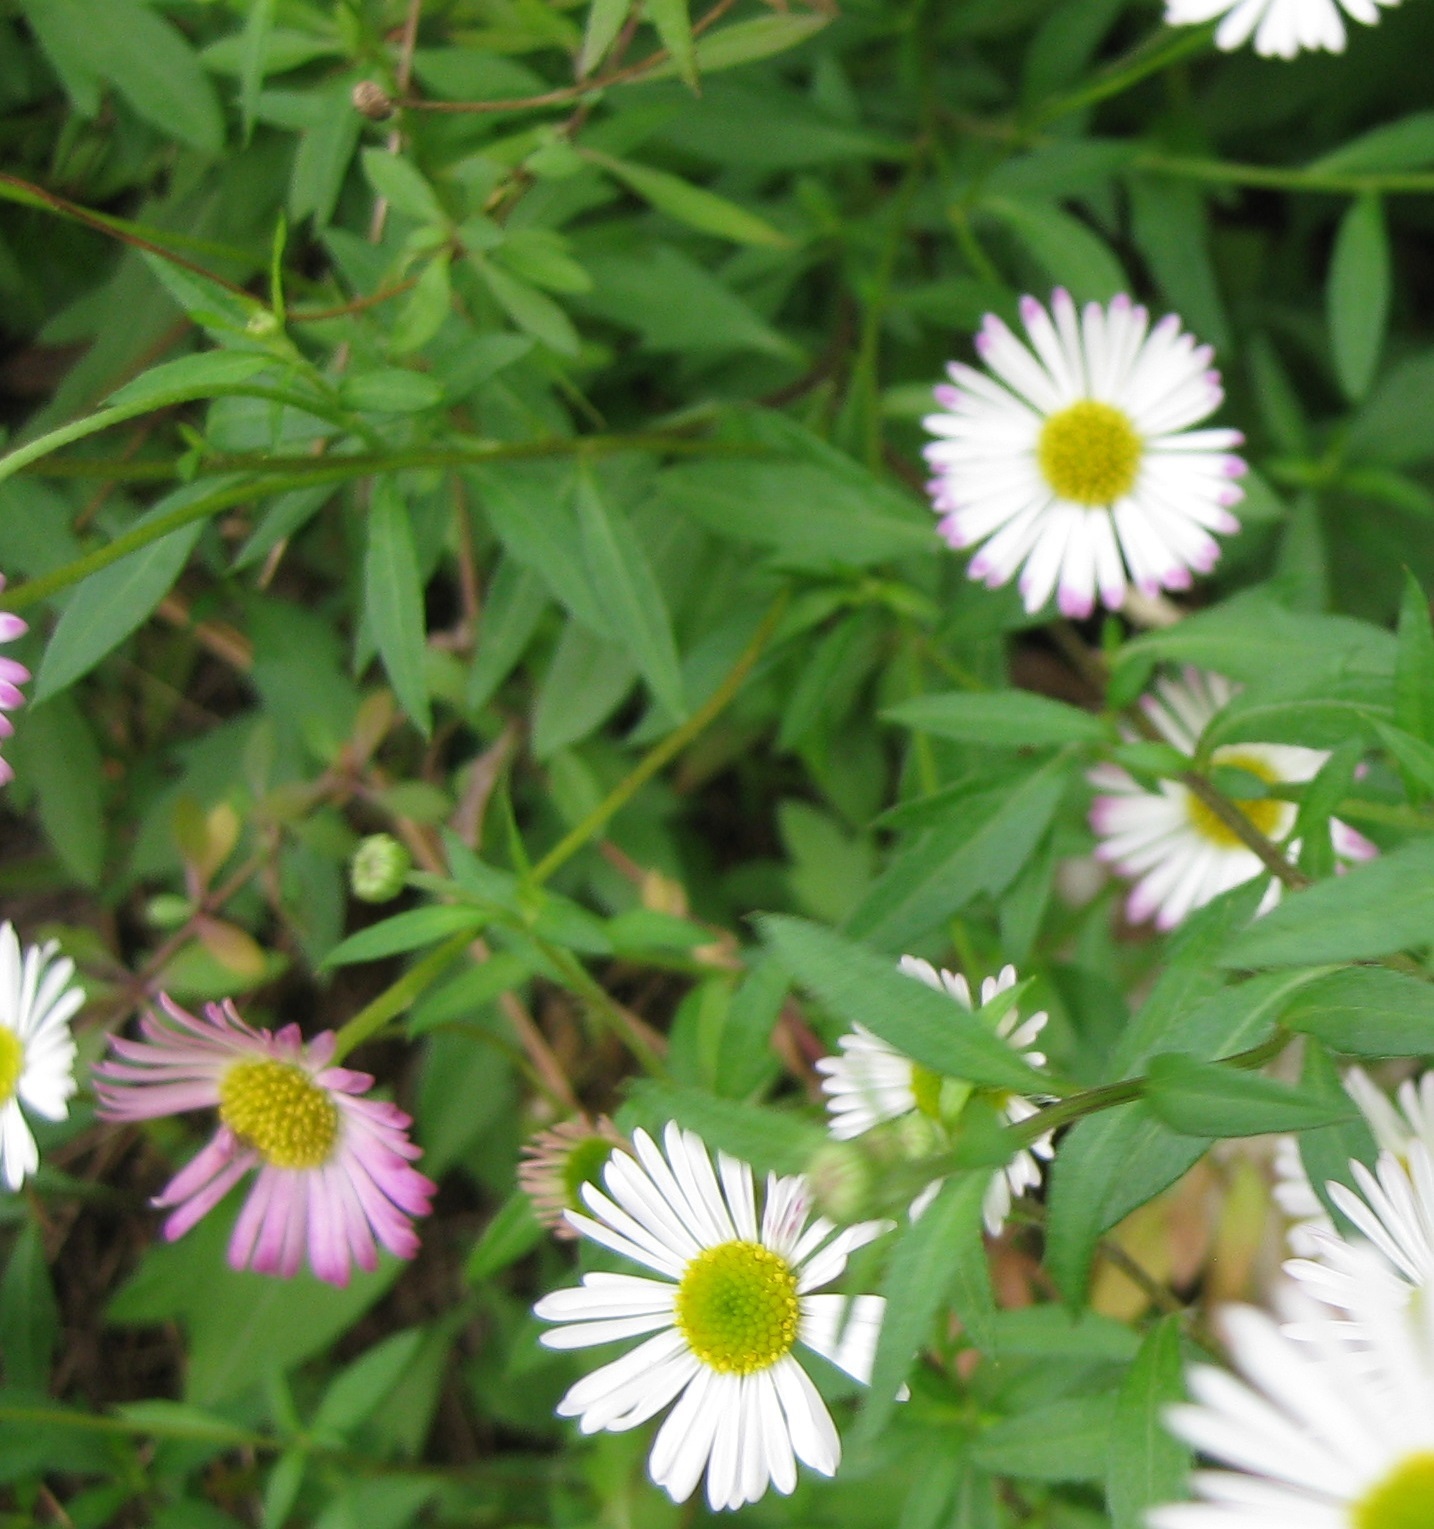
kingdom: Plantae
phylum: Tracheophyta
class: Magnoliopsida
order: Asterales
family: Asteraceae
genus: Erigeron
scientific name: Erigeron karvinskianus
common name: Mexican fleabane
